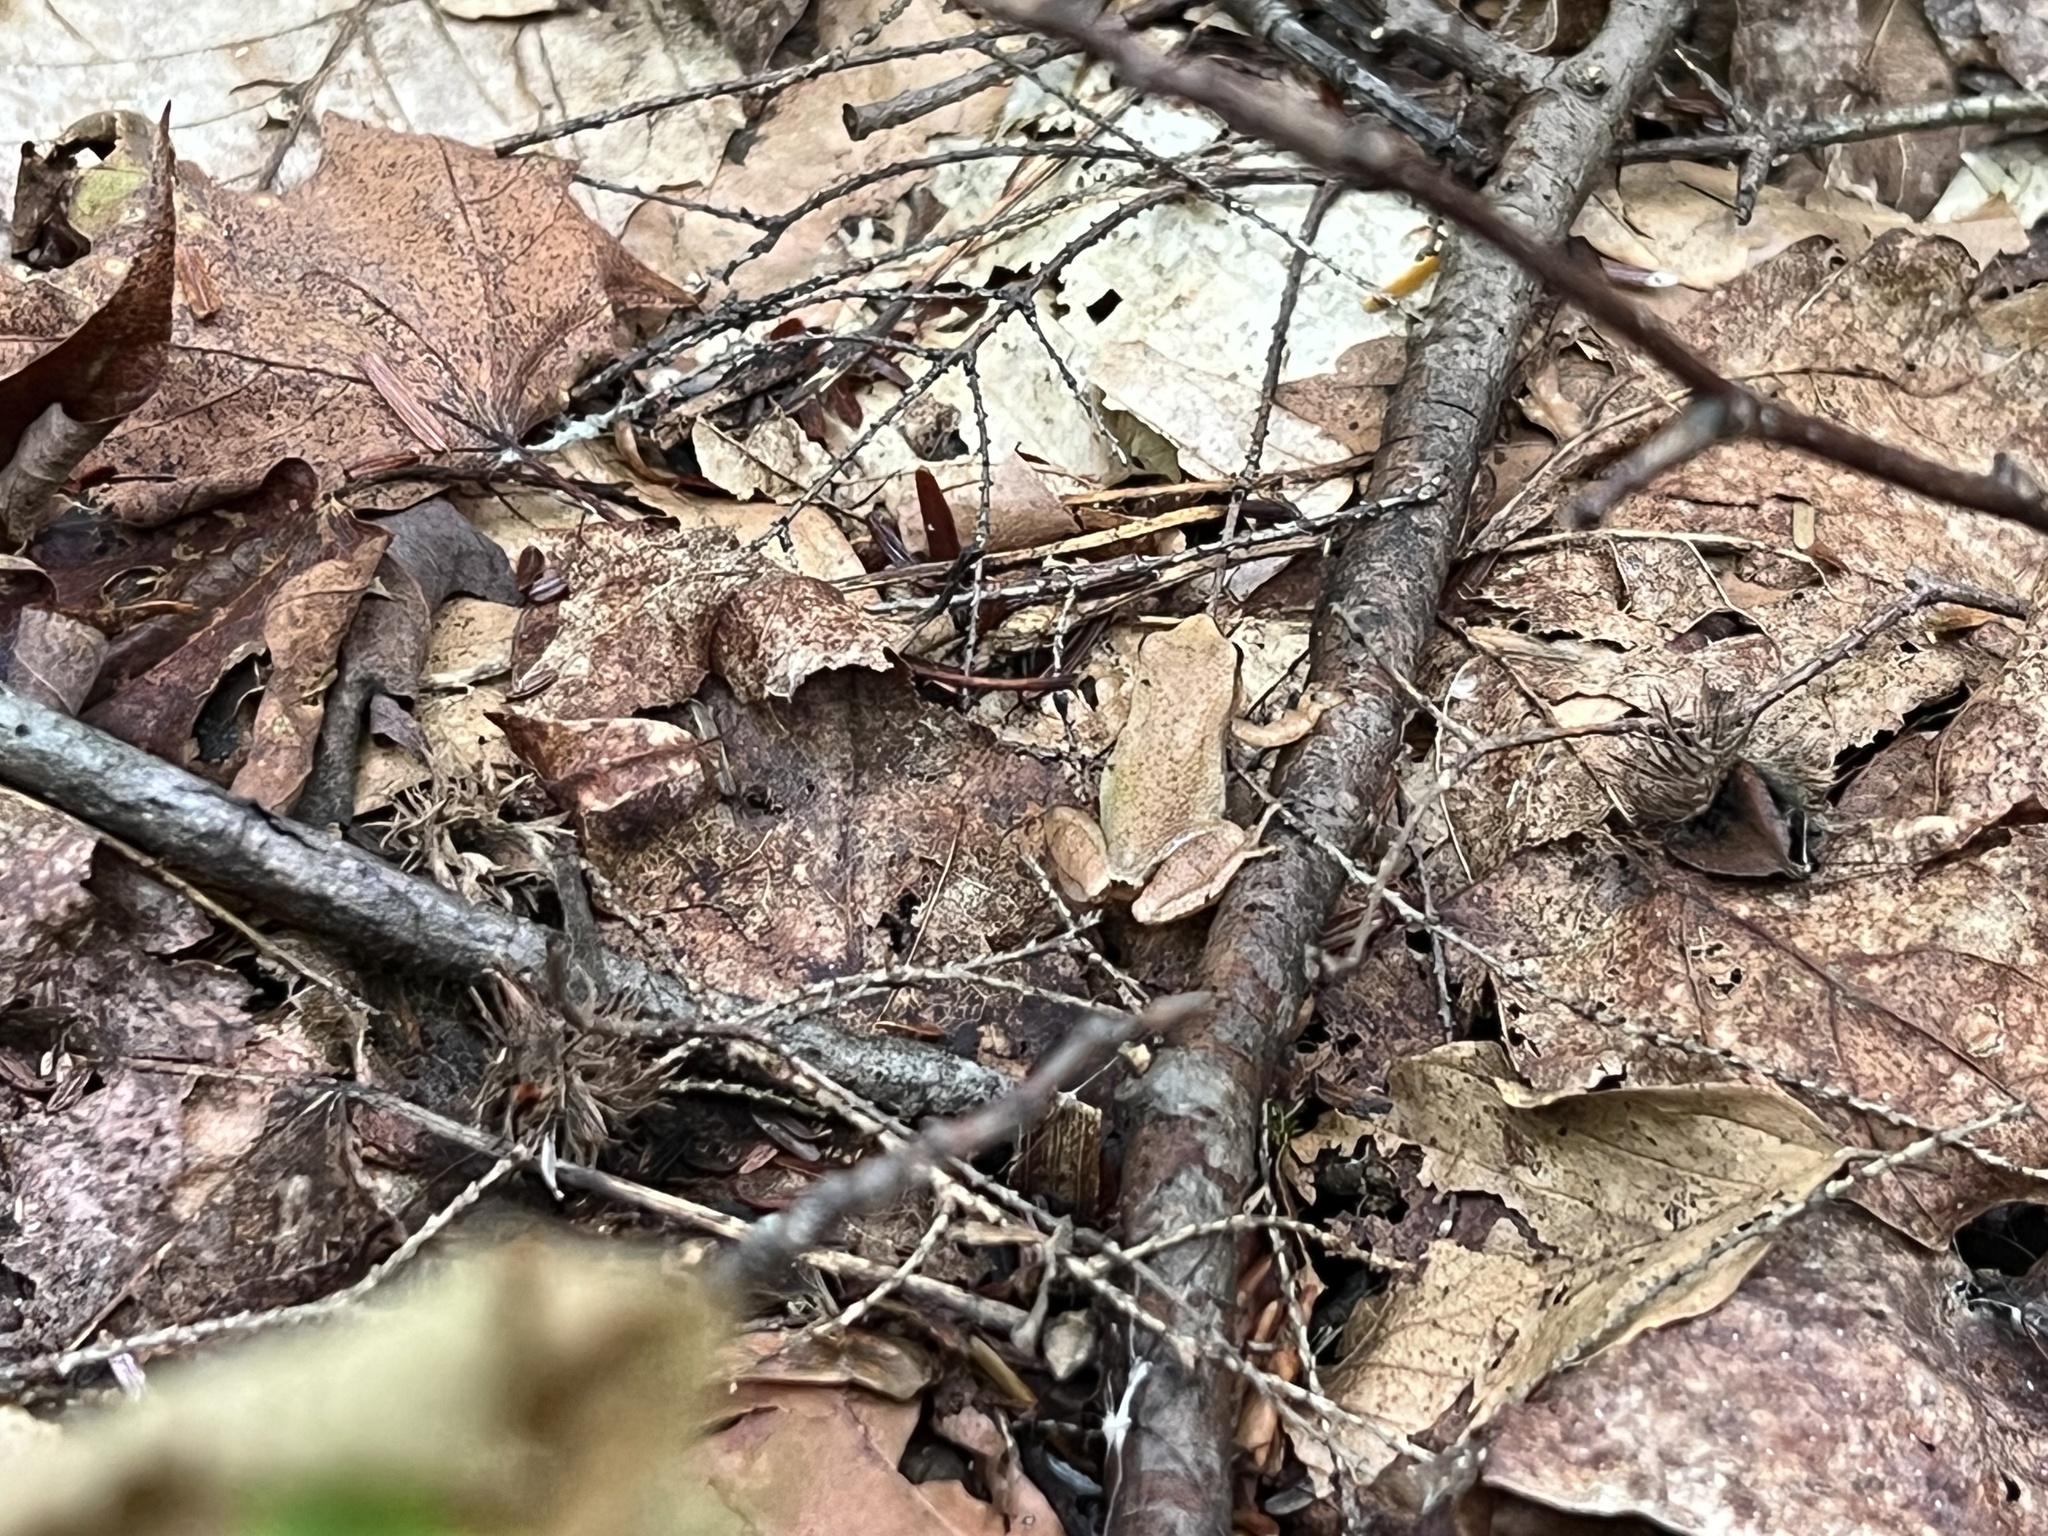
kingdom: Animalia
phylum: Chordata
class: Amphibia
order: Anura
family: Hylidae
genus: Pseudacris
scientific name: Pseudacris crucifer
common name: Spring peeper
